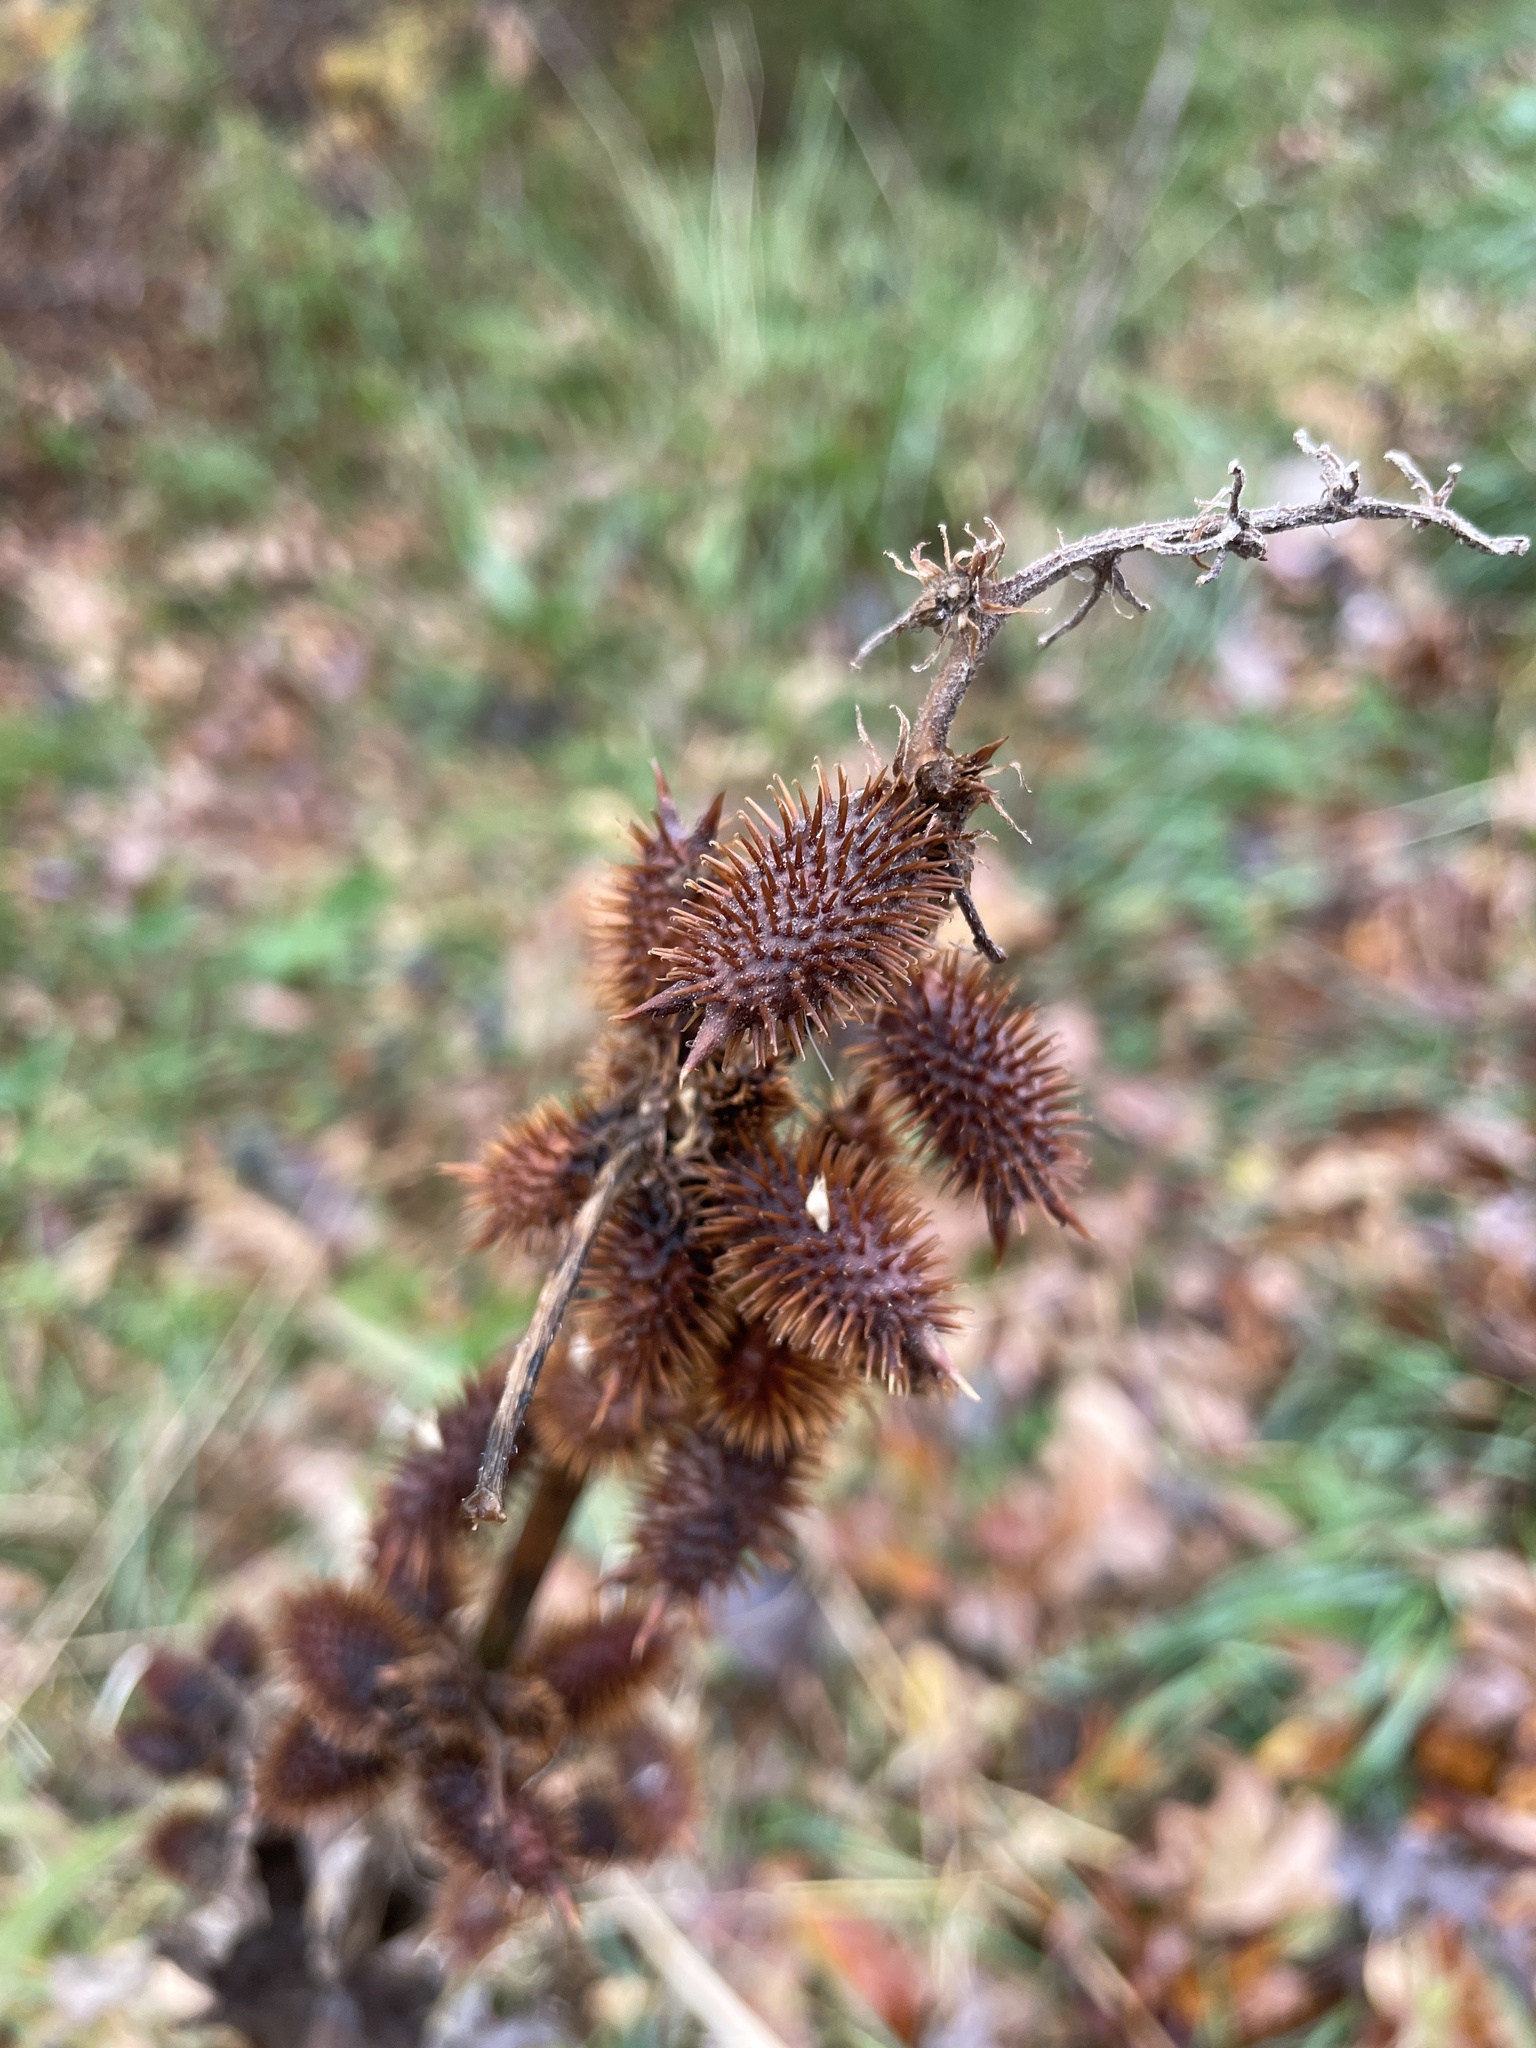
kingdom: Plantae
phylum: Tracheophyta
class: Magnoliopsida
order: Asterales
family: Asteraceae
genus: Xanthium
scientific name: Xanthium strumarium
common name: Rough cocklebur
